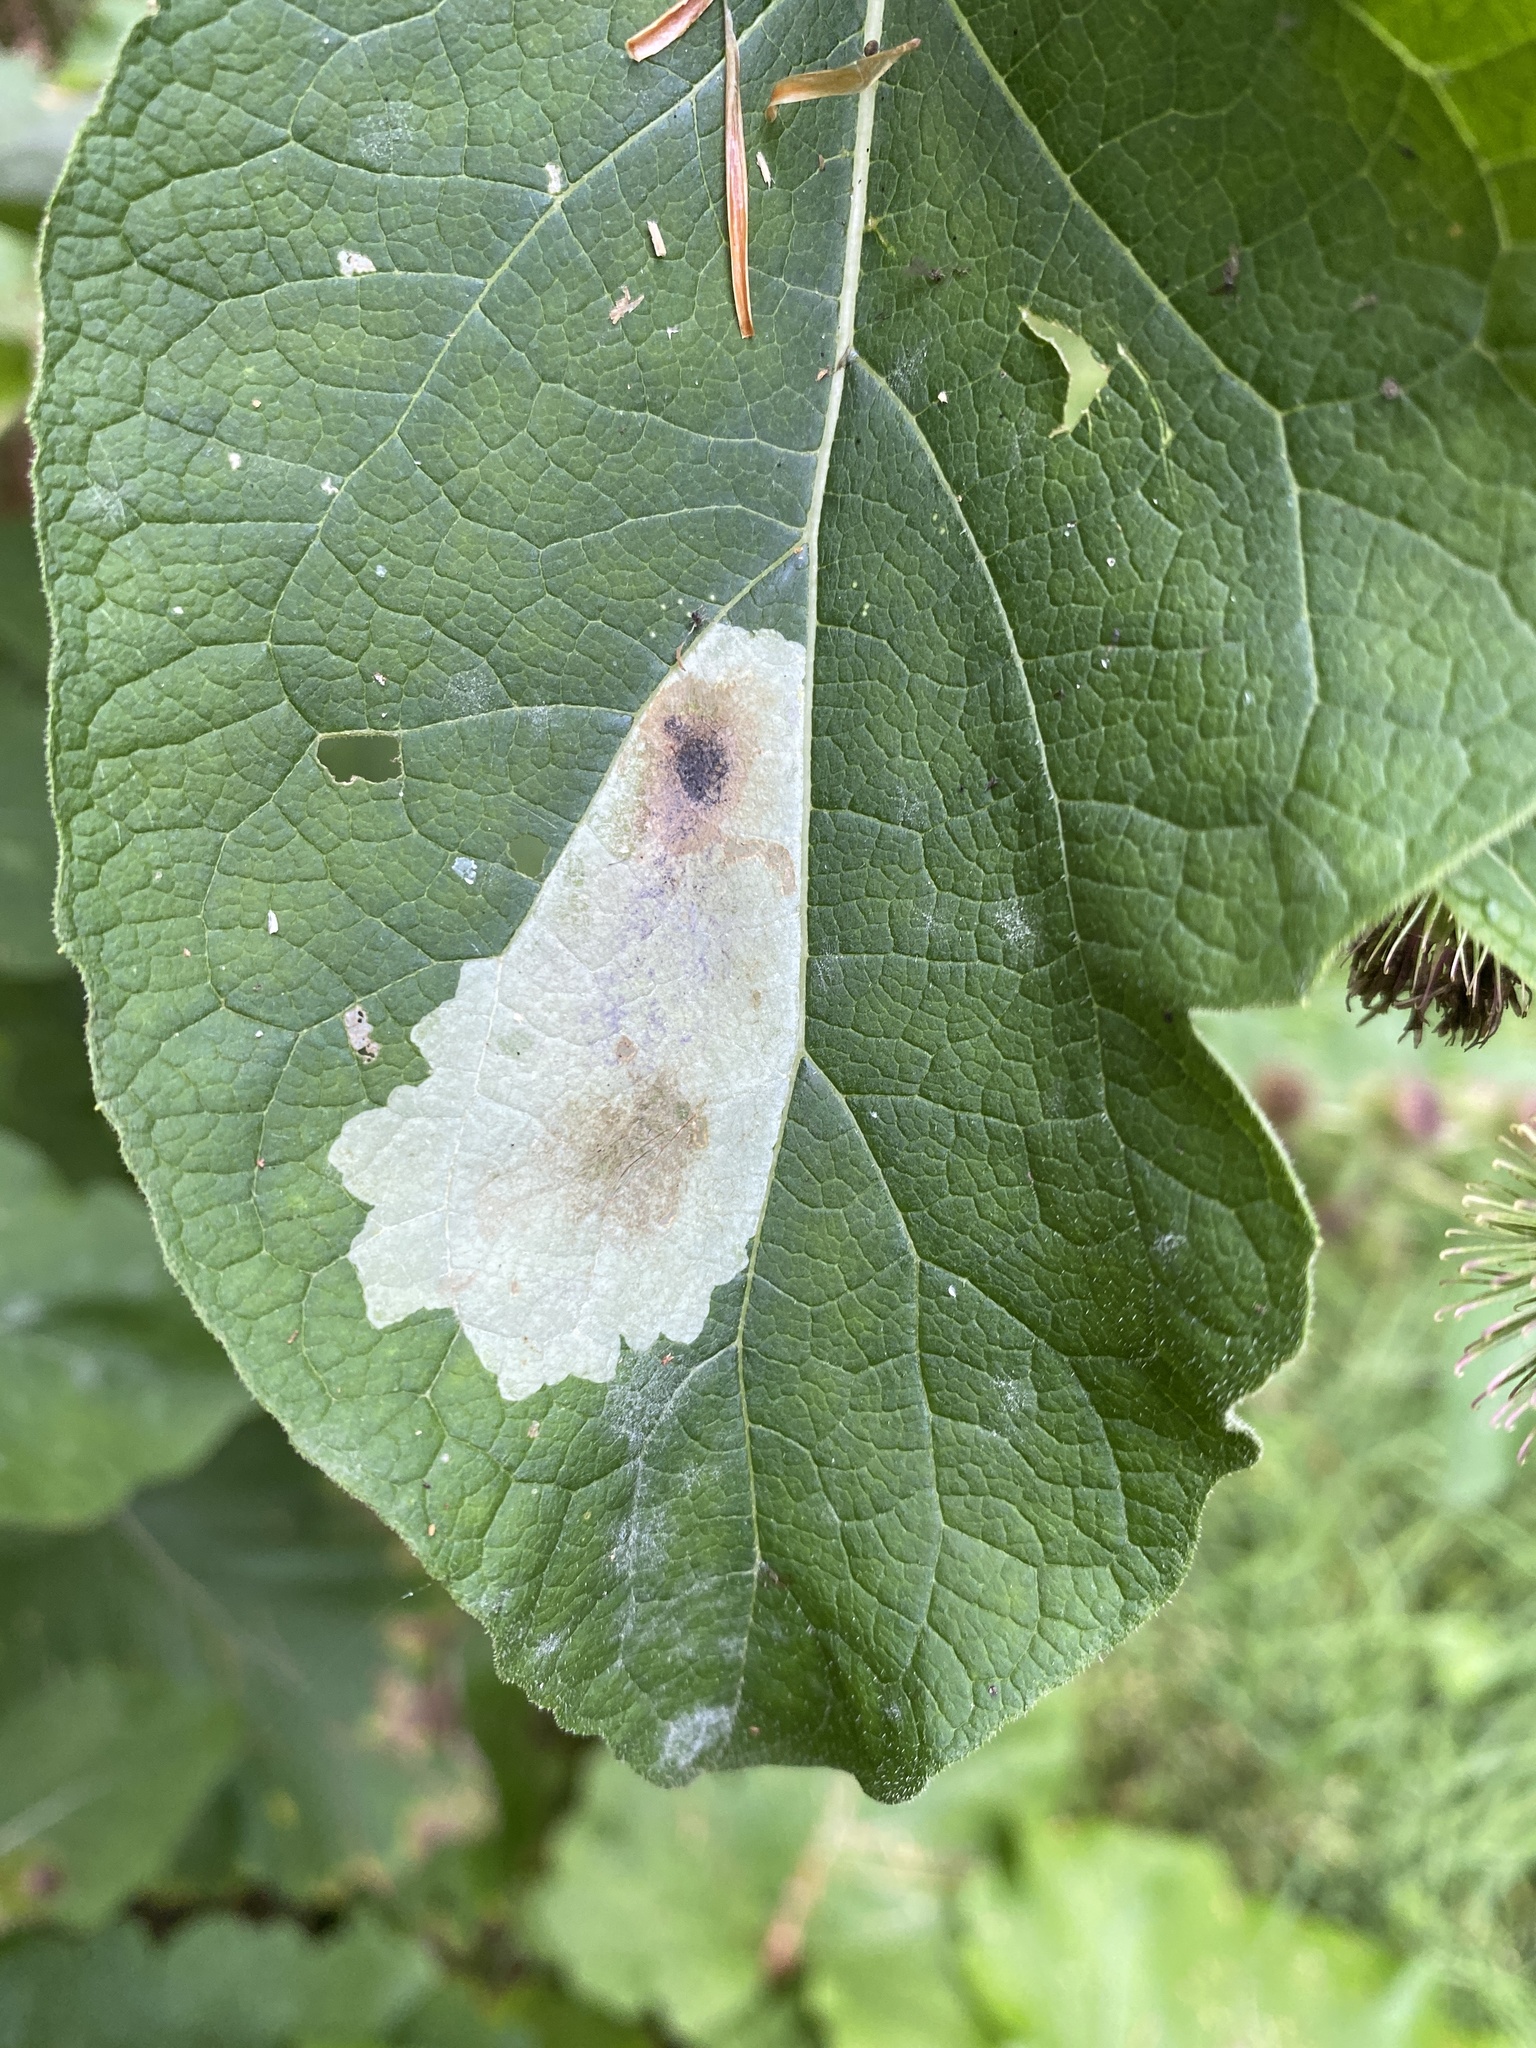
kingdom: Animalia
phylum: Arthropoda
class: Insecta
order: Diptera
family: Agromyzidae
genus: Calycomyza
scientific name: Calycomyza flavinotum
